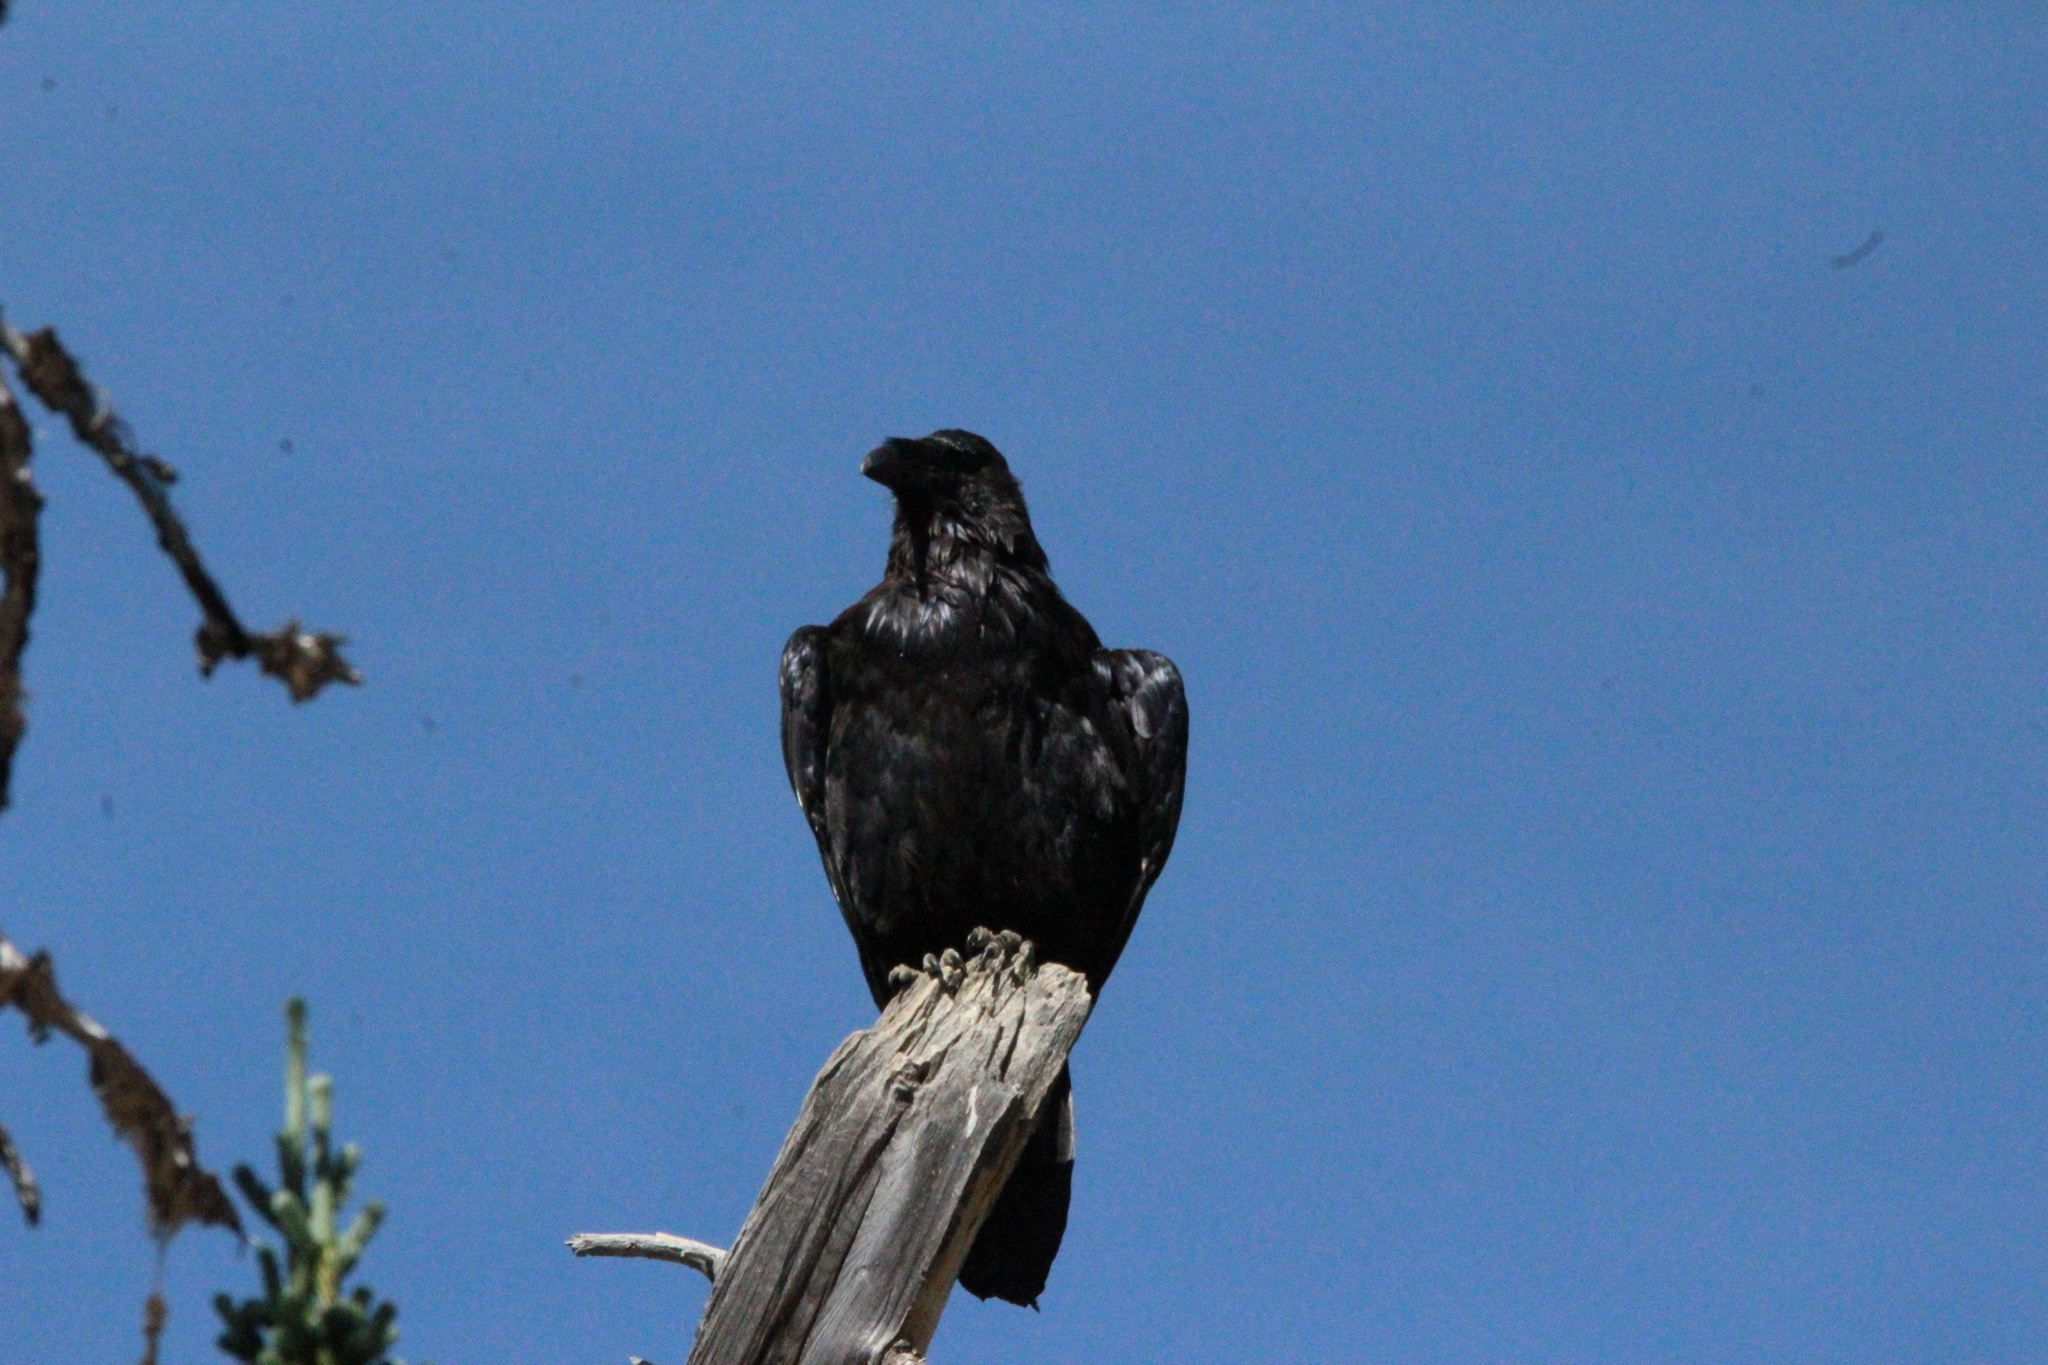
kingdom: Animalia
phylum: Chordata
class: Aves
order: Passeriformes
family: Corvidae
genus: Corvus
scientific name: Corvus corax
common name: Common raven
